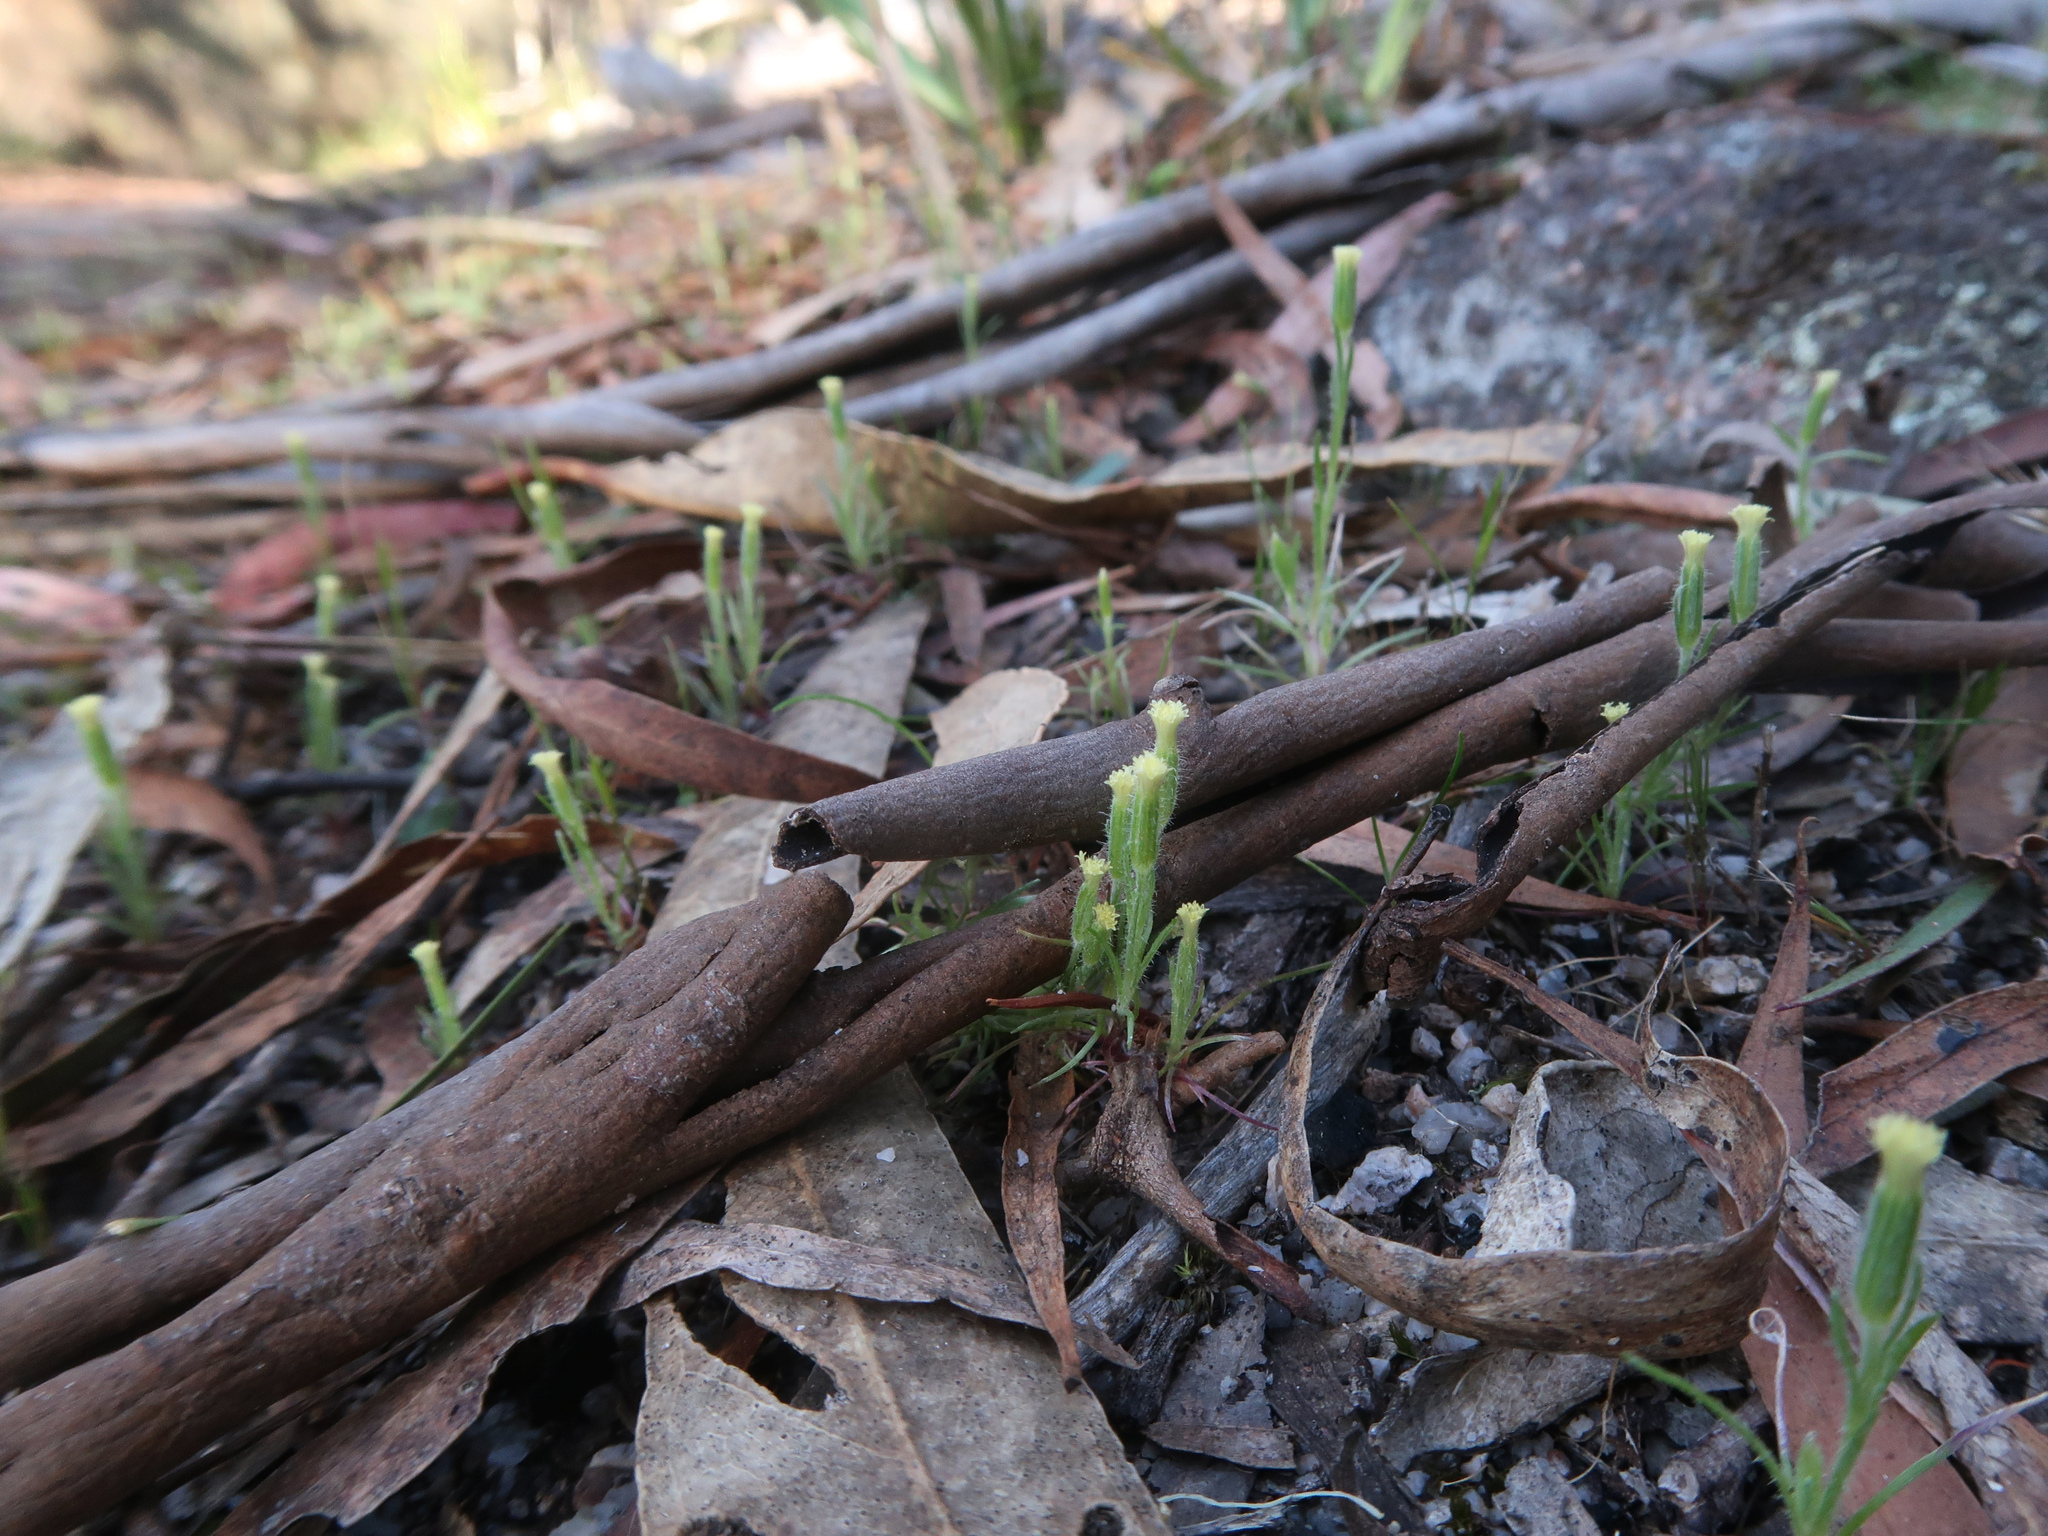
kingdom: Plantae
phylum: Tracheophyta
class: Magnoliopsida
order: Asterales
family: Asteraceae
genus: Millotia
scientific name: Millotia tenuifolia
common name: Soft millotia
